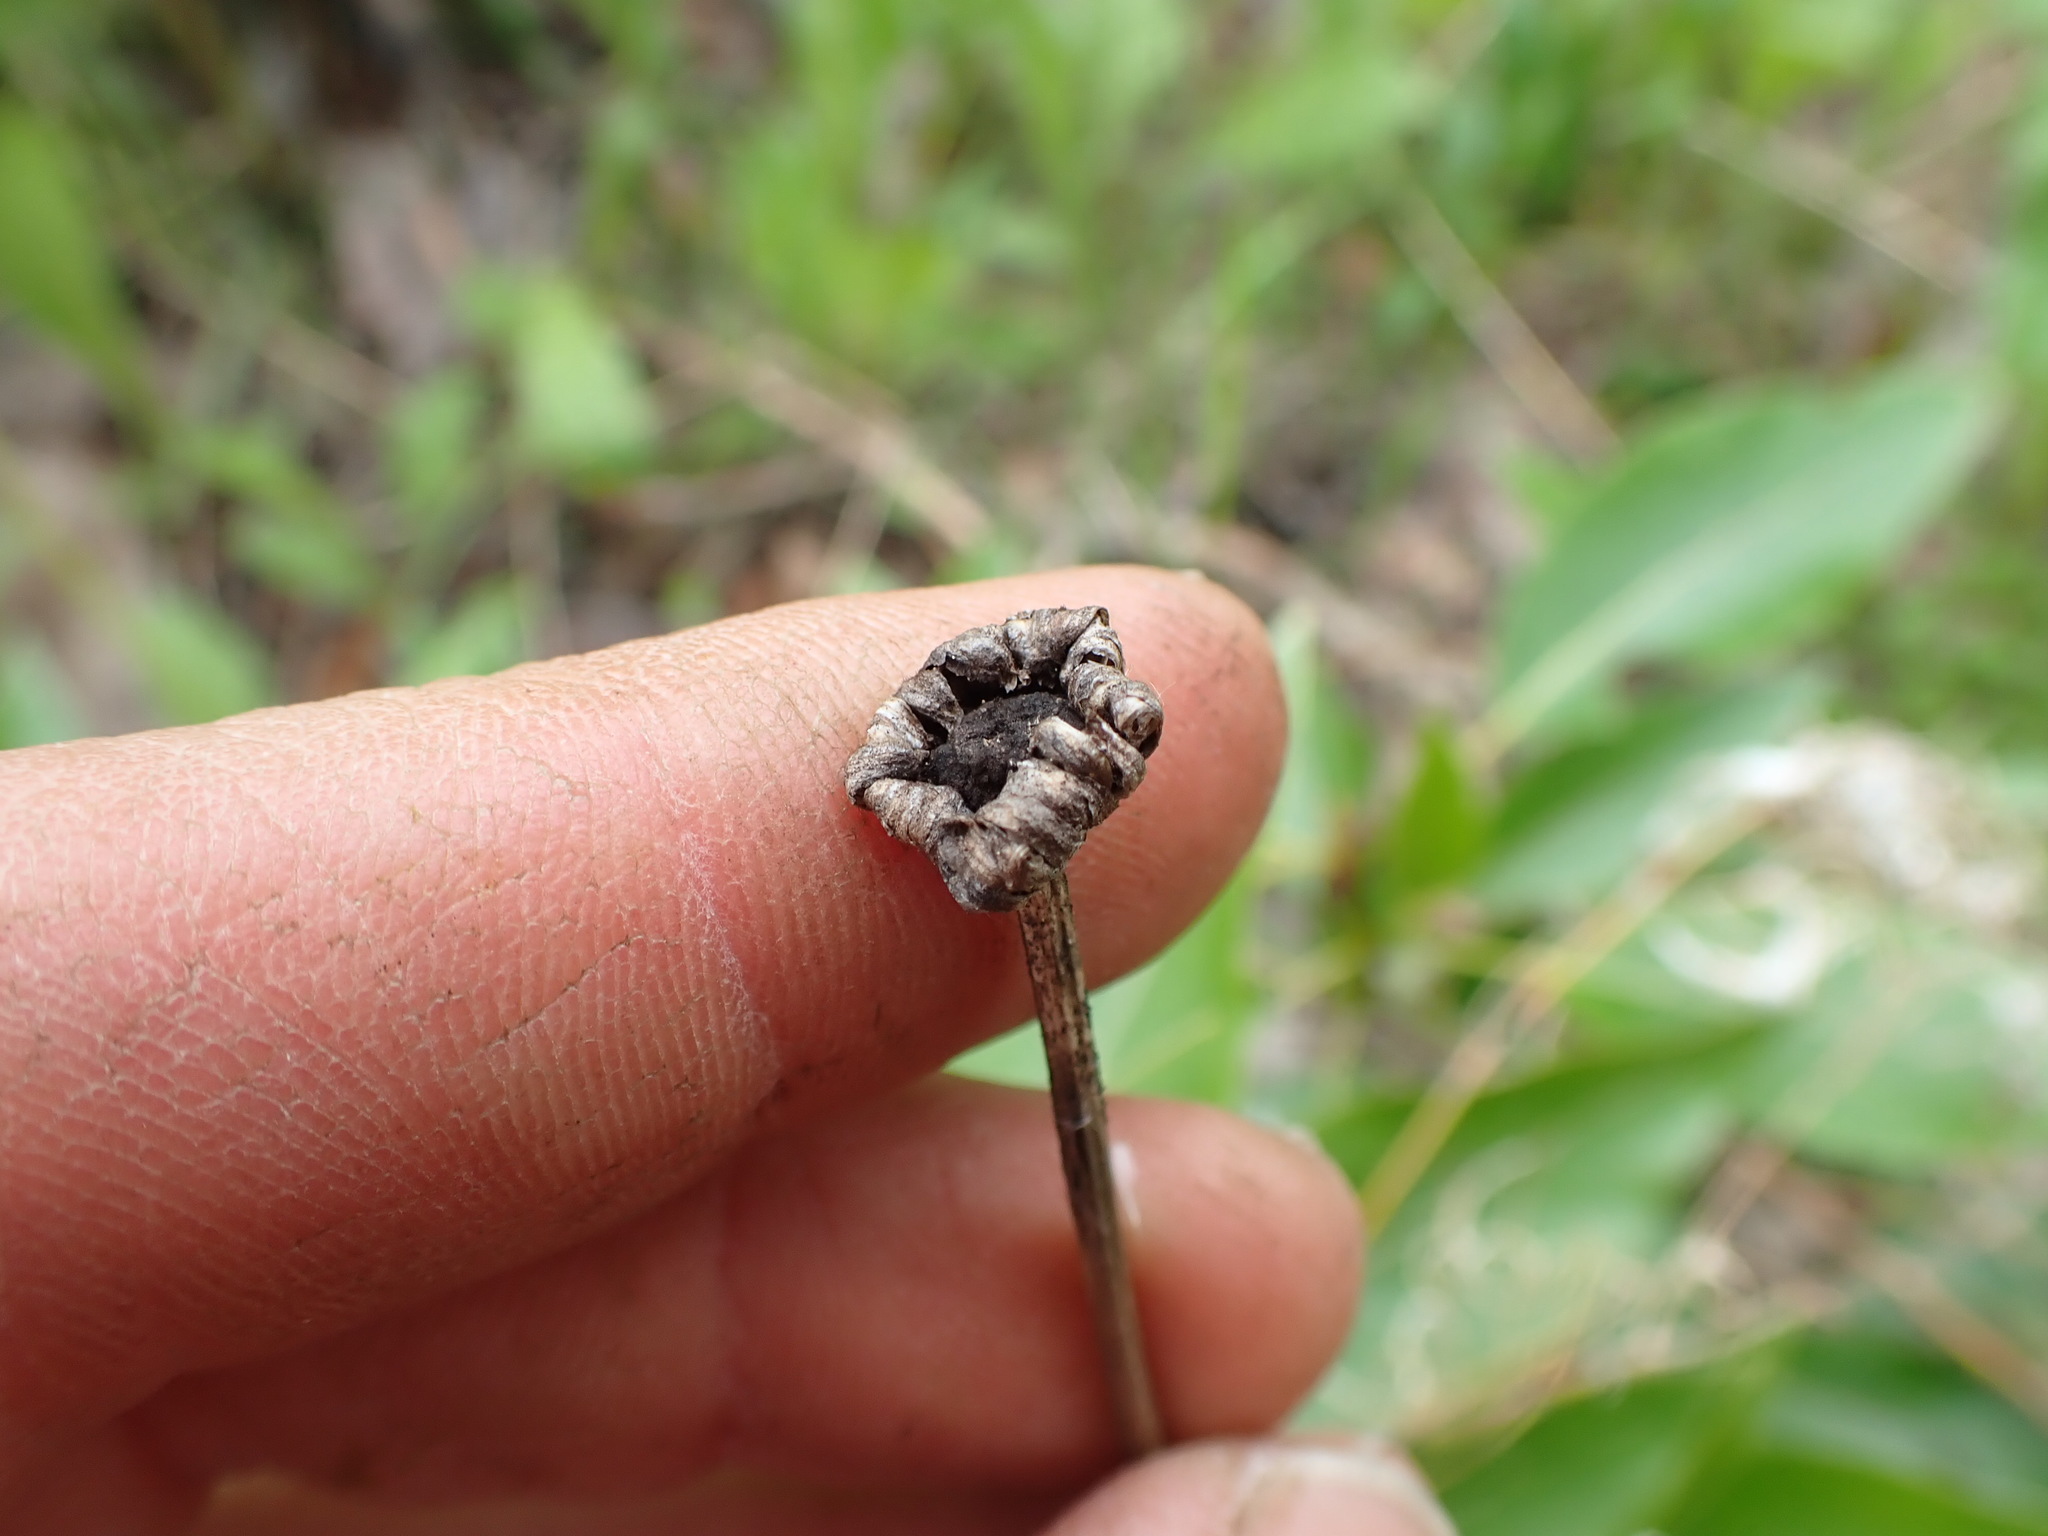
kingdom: Plantae
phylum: Tracheophyta
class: Magnoliopsida
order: Asterales
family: Asteraceae
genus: Leucanthemum
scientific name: Leucanthemum vulgare
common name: Oxeye daisy
